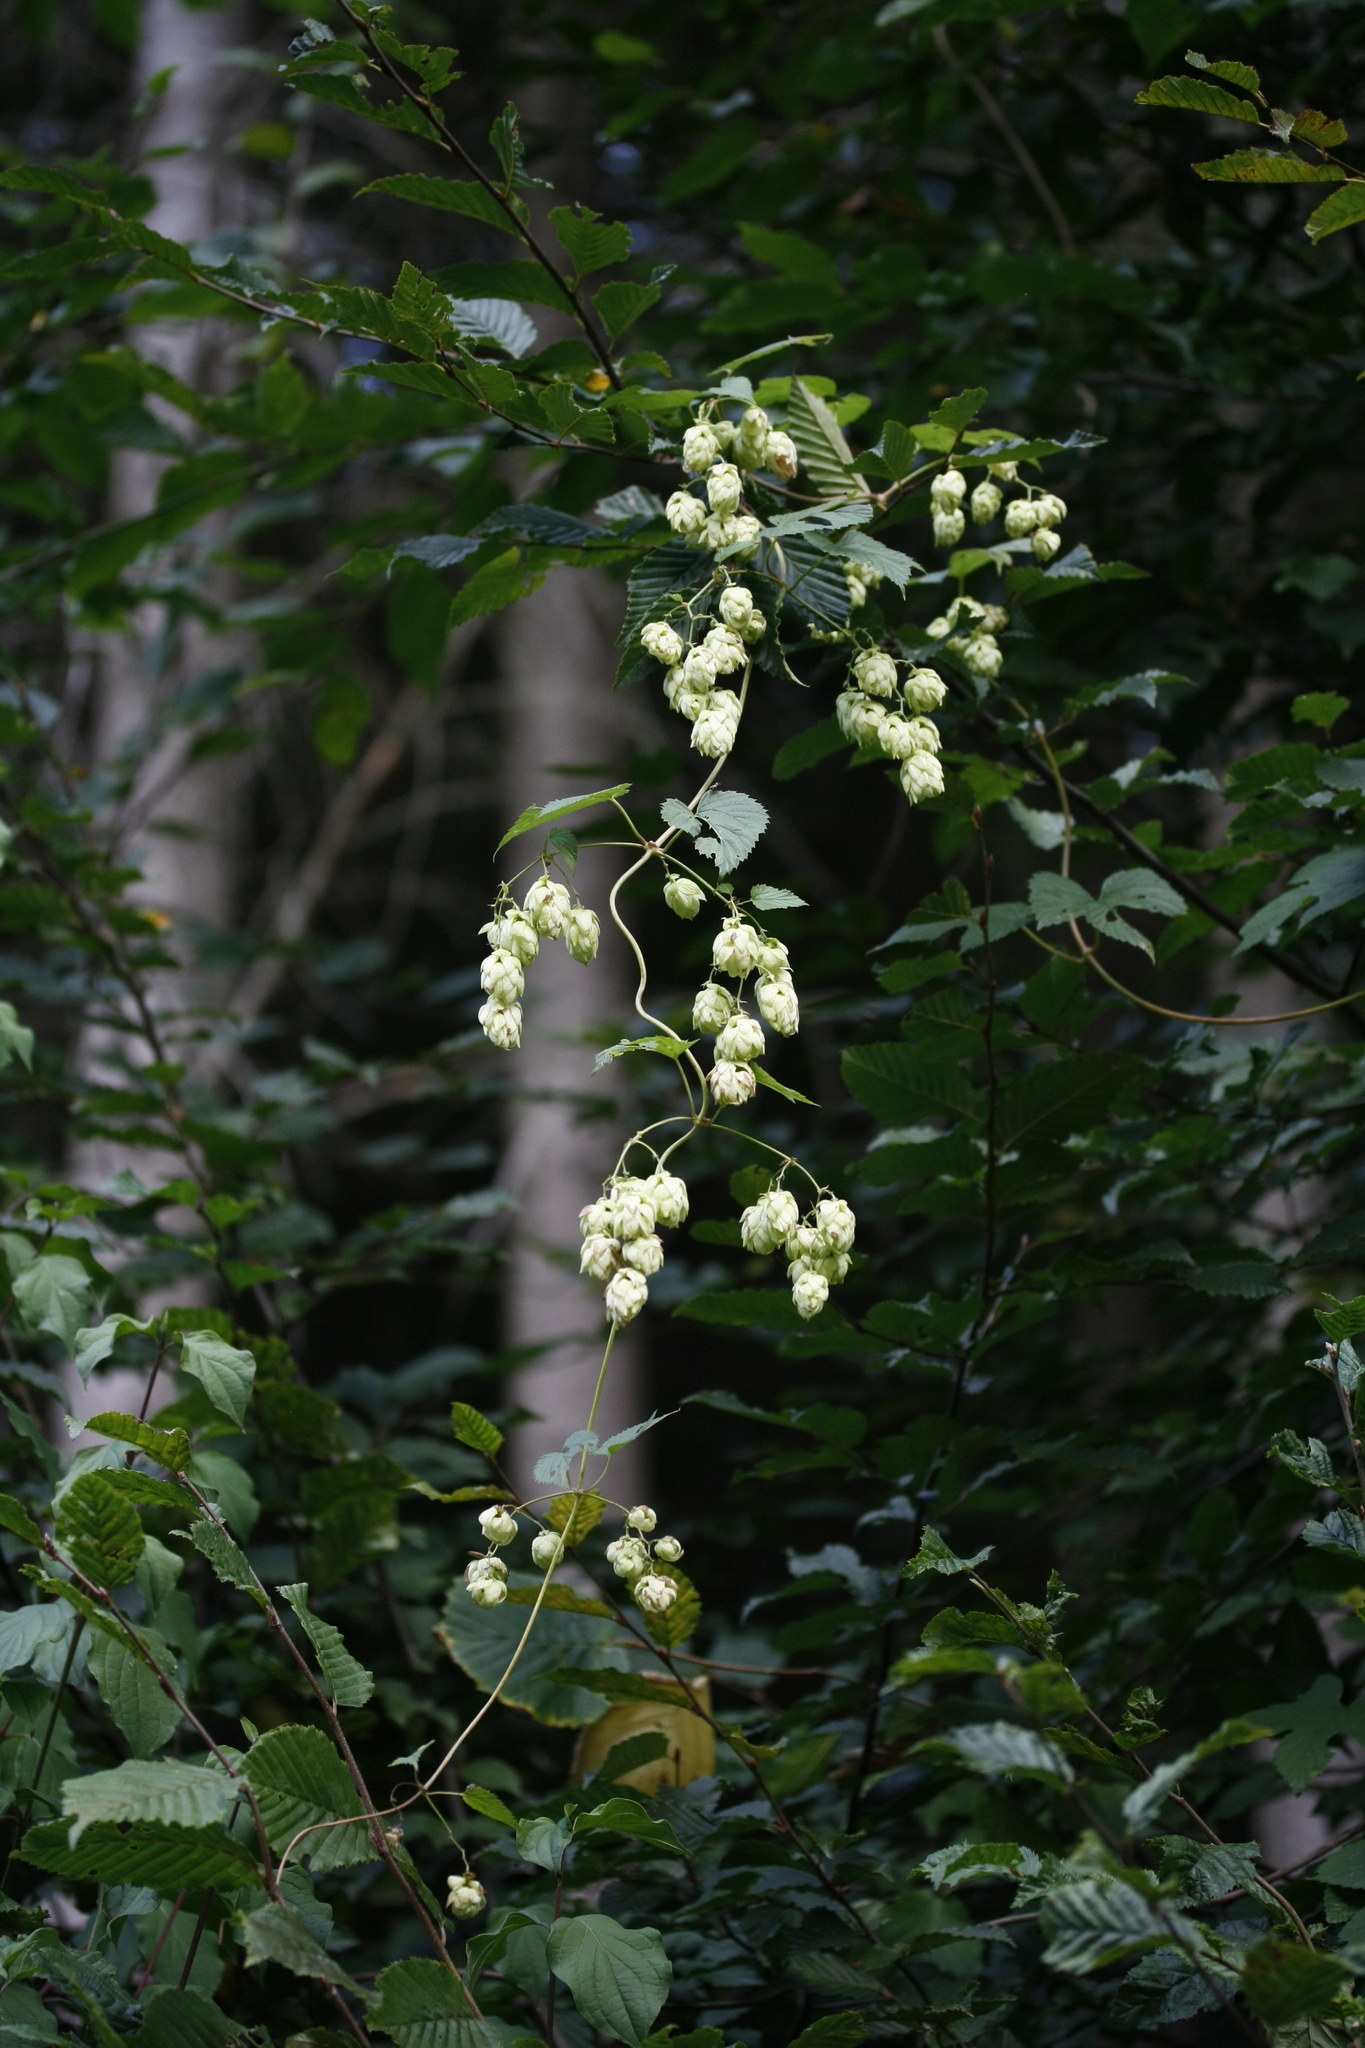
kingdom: Plantae
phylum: Tracheophyta
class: Magnoliopsida
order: Rosales
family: Cannabaceae
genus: Humulus
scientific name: Humulus lupulus
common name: Hop
